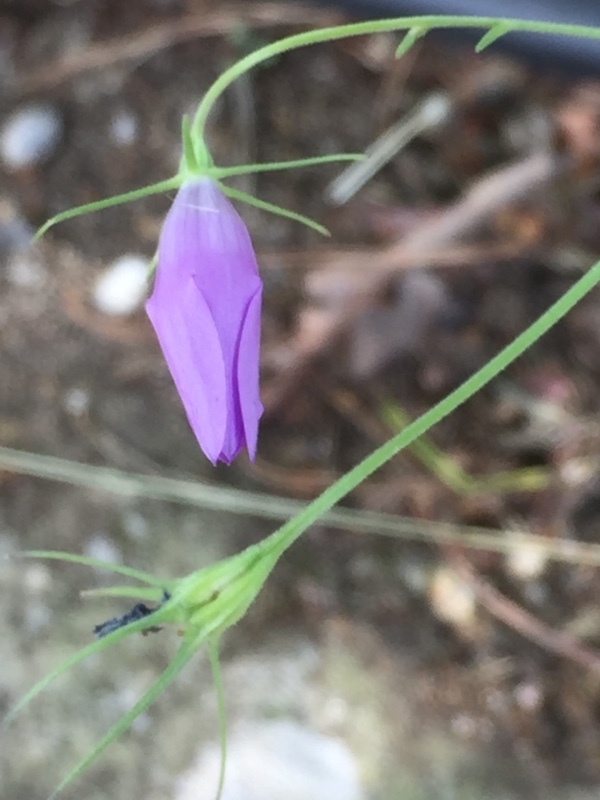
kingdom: Plantae
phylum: Tracheophyta
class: Magnoliopsida
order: Asterales
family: Campanulaceae
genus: Campanula
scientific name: Campanula lusitanica
